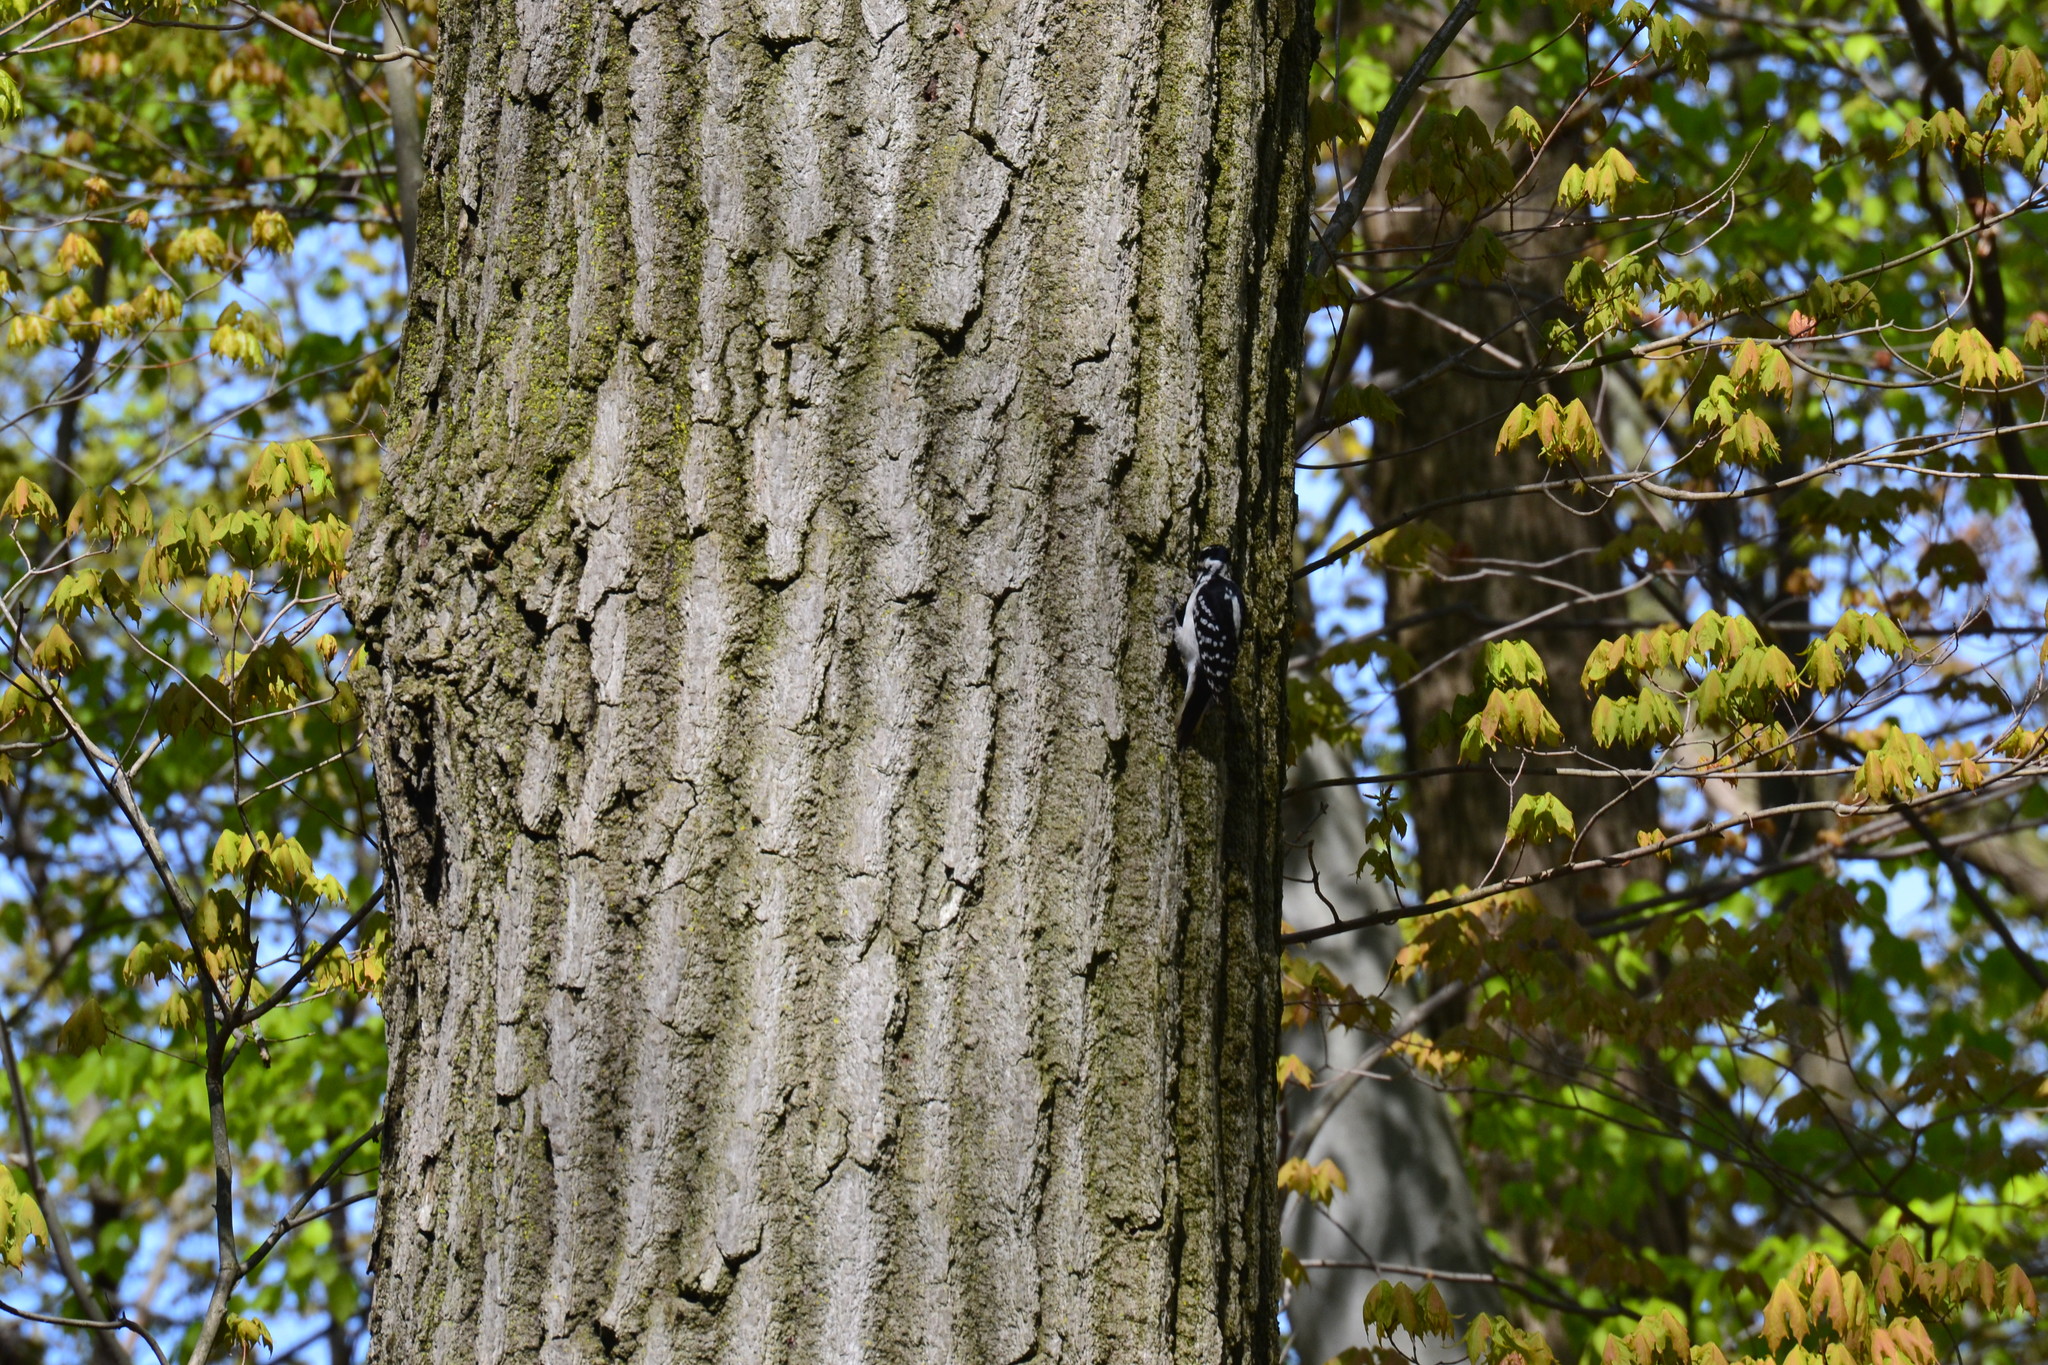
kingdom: Animalia
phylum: Chordata
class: Aves
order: Piciformes
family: Picidae
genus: Leuconotopicus
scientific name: Leuconotopicus villosus
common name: Hairy woodpecker
